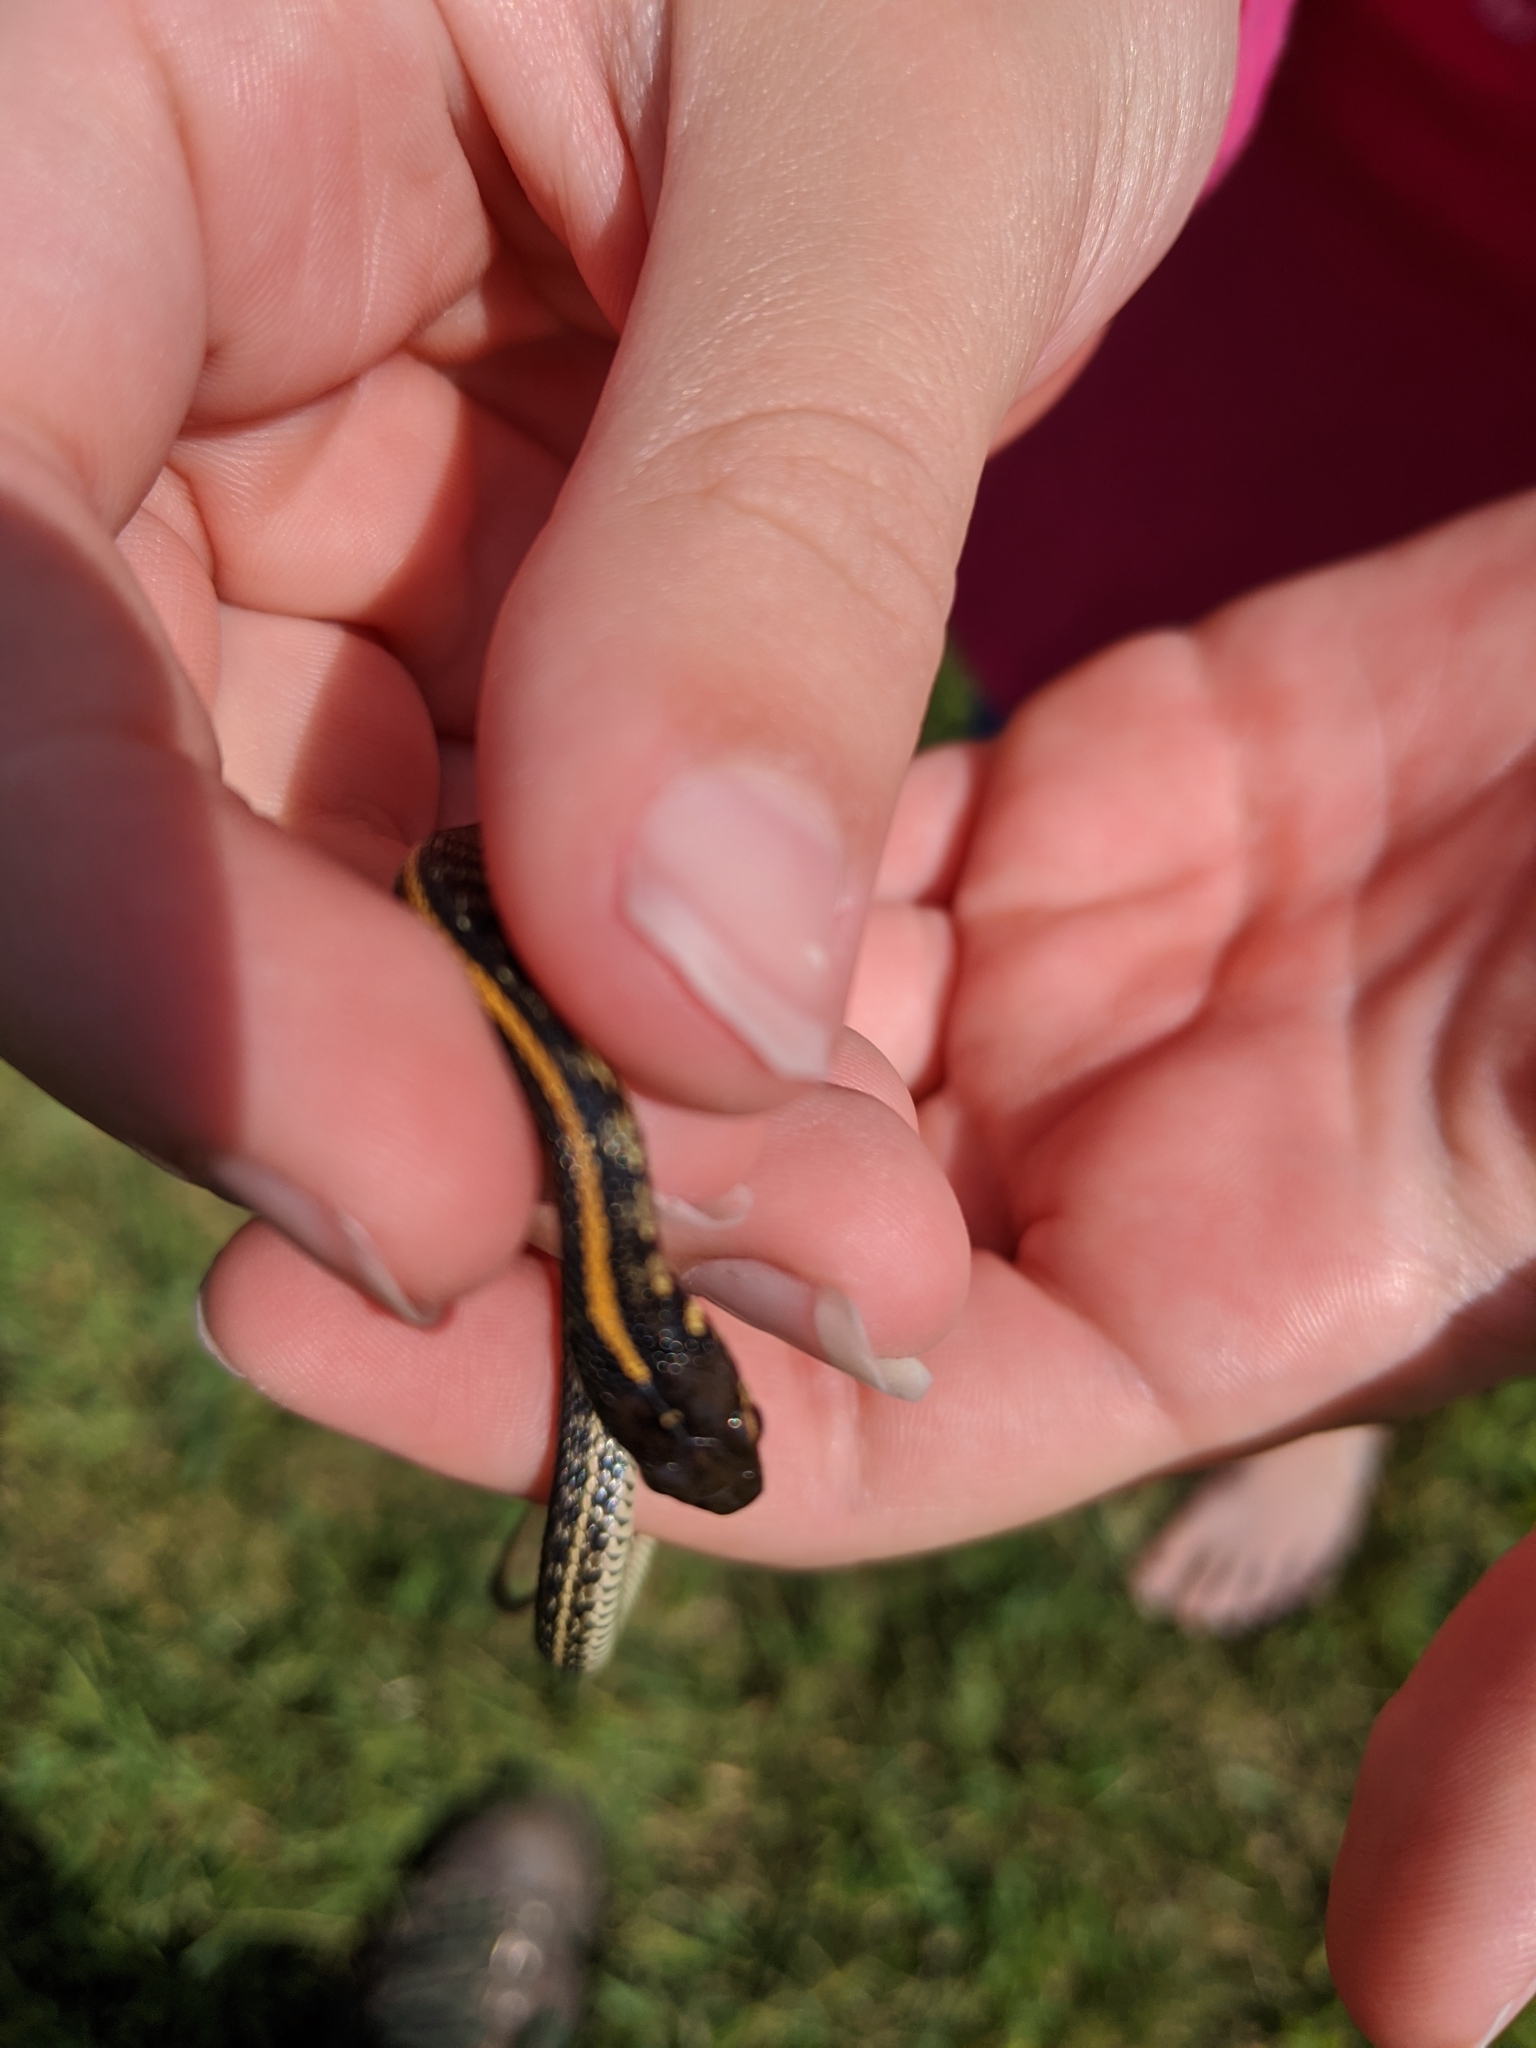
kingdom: Animalia
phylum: Chordata
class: Squamata
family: Colubridae
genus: Thamnophis
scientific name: Thamnophis radix
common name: Plains garter snake
